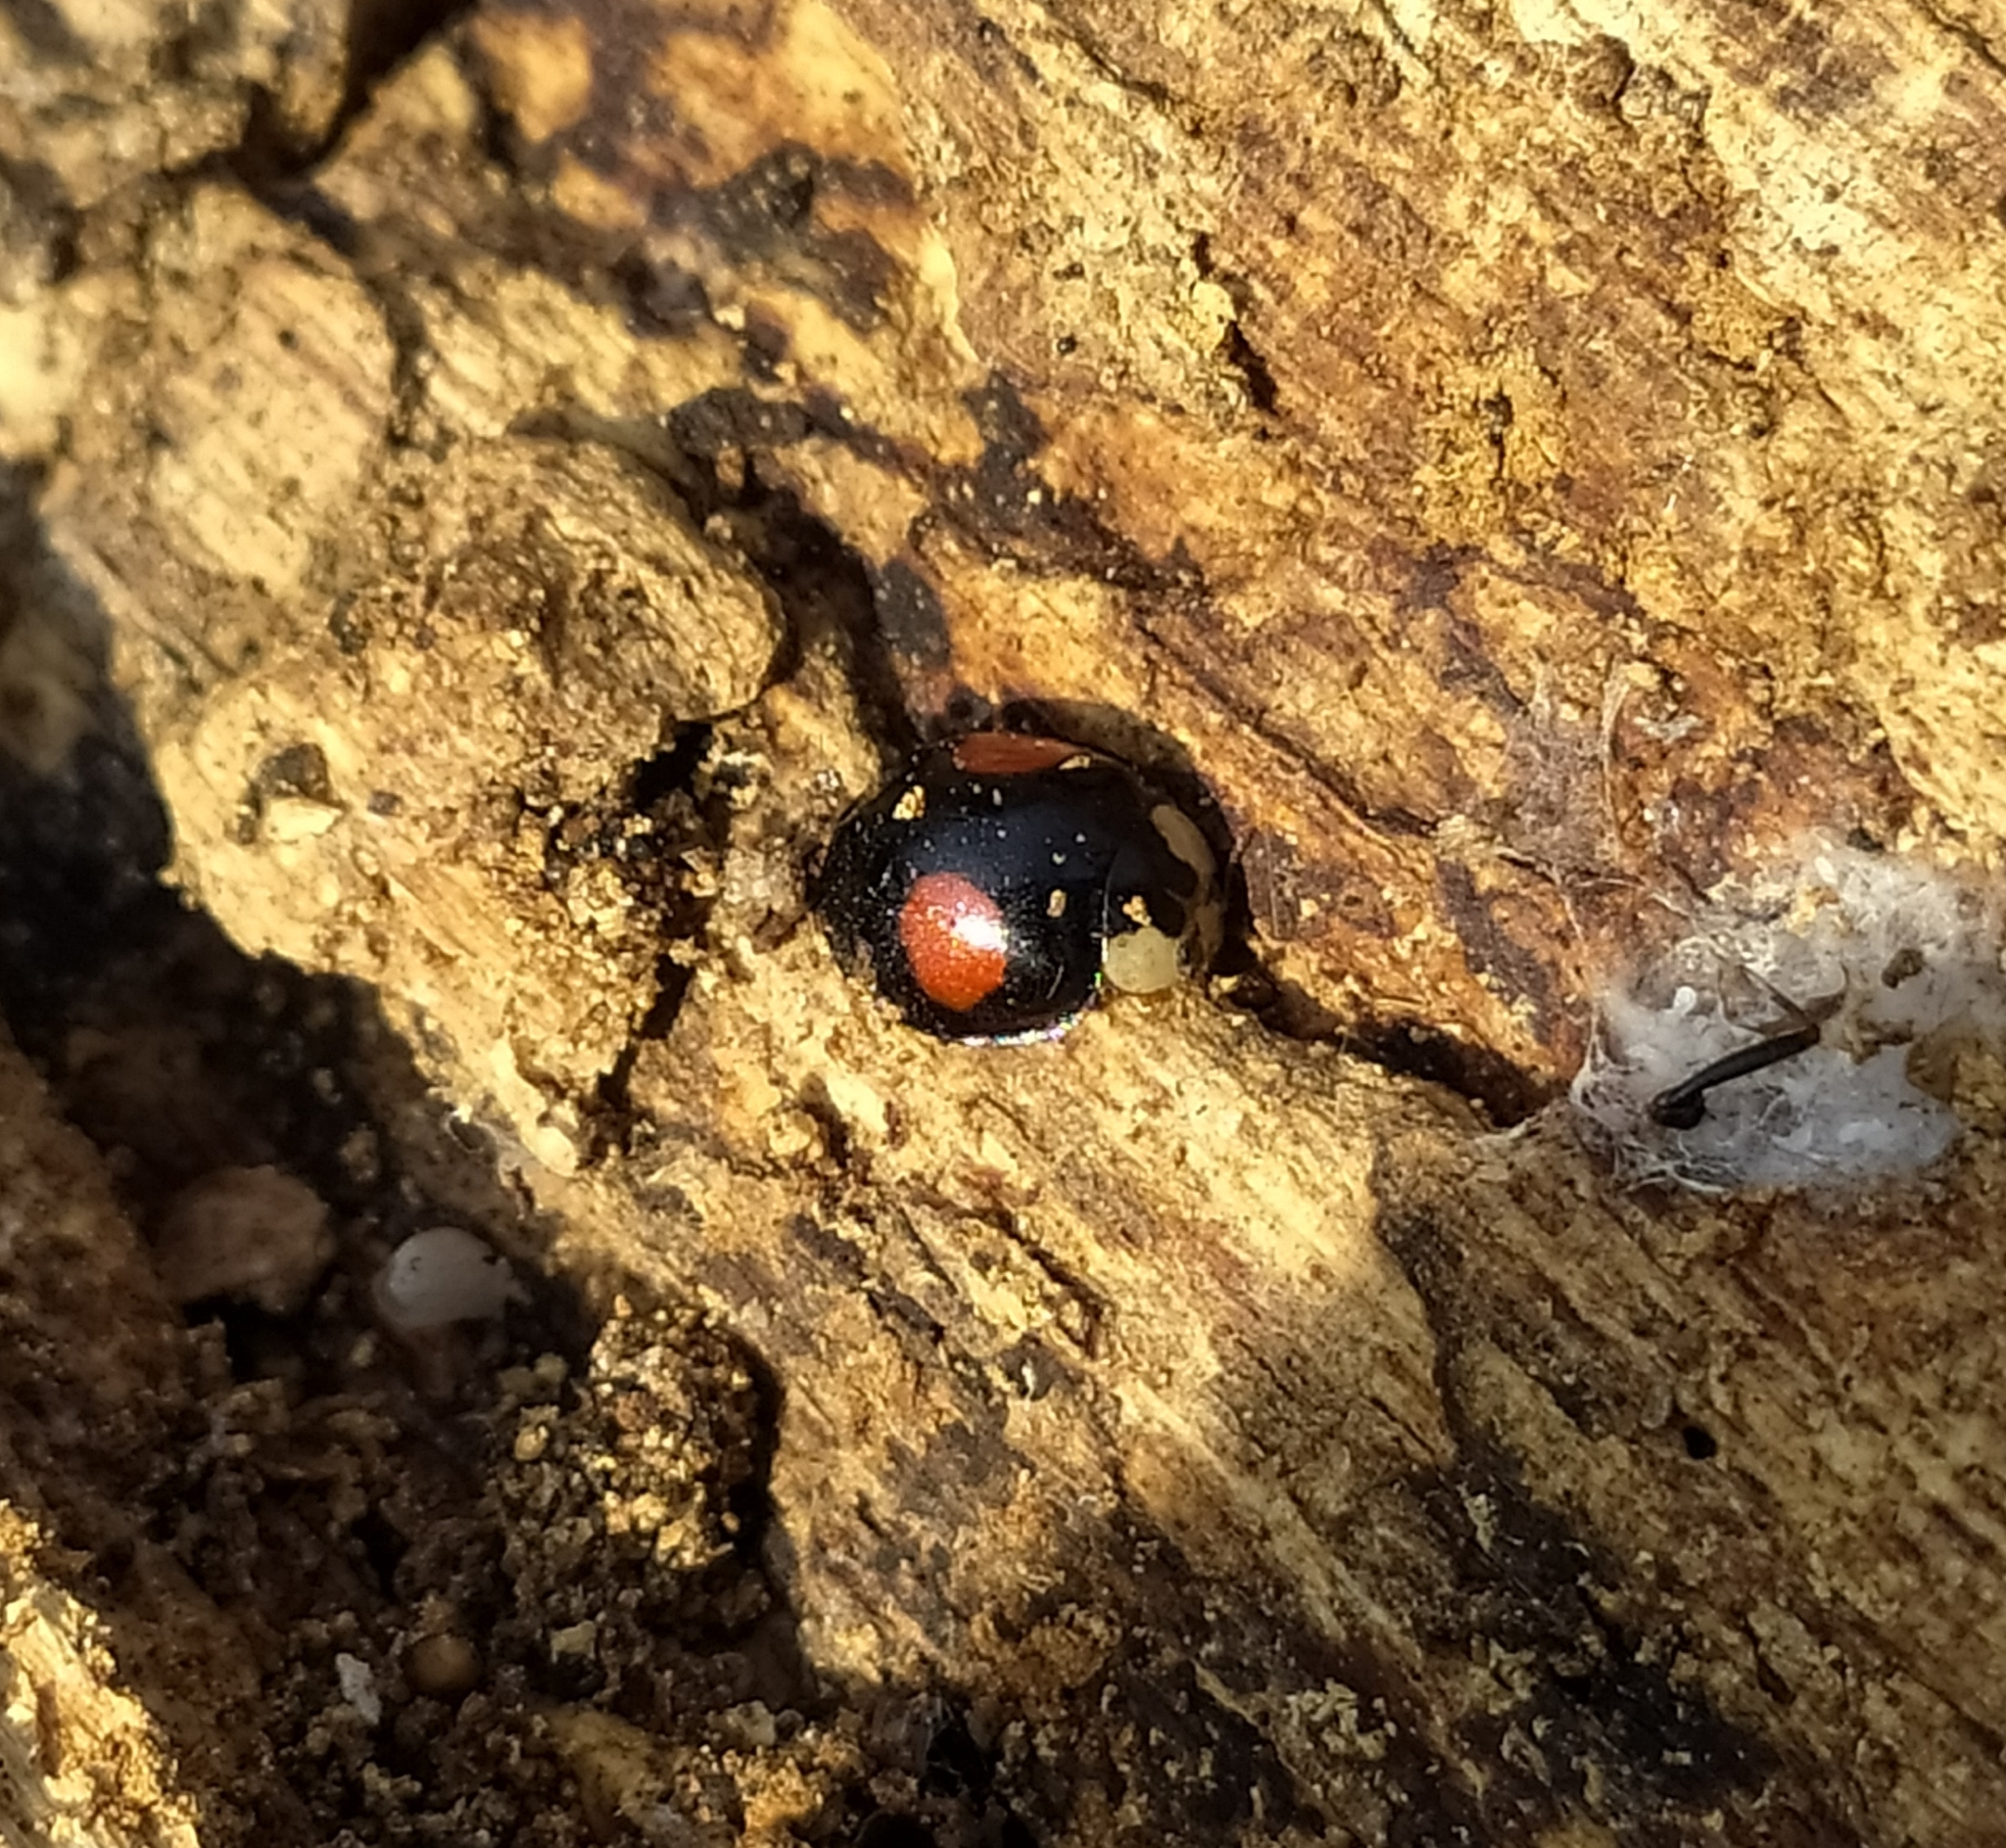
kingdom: Animalia
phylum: Arthropoda
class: Insecta
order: Coleoptera
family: Coccinellidae
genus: Harmonia
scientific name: Harmonia axyridis
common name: Harlequin ladybird
